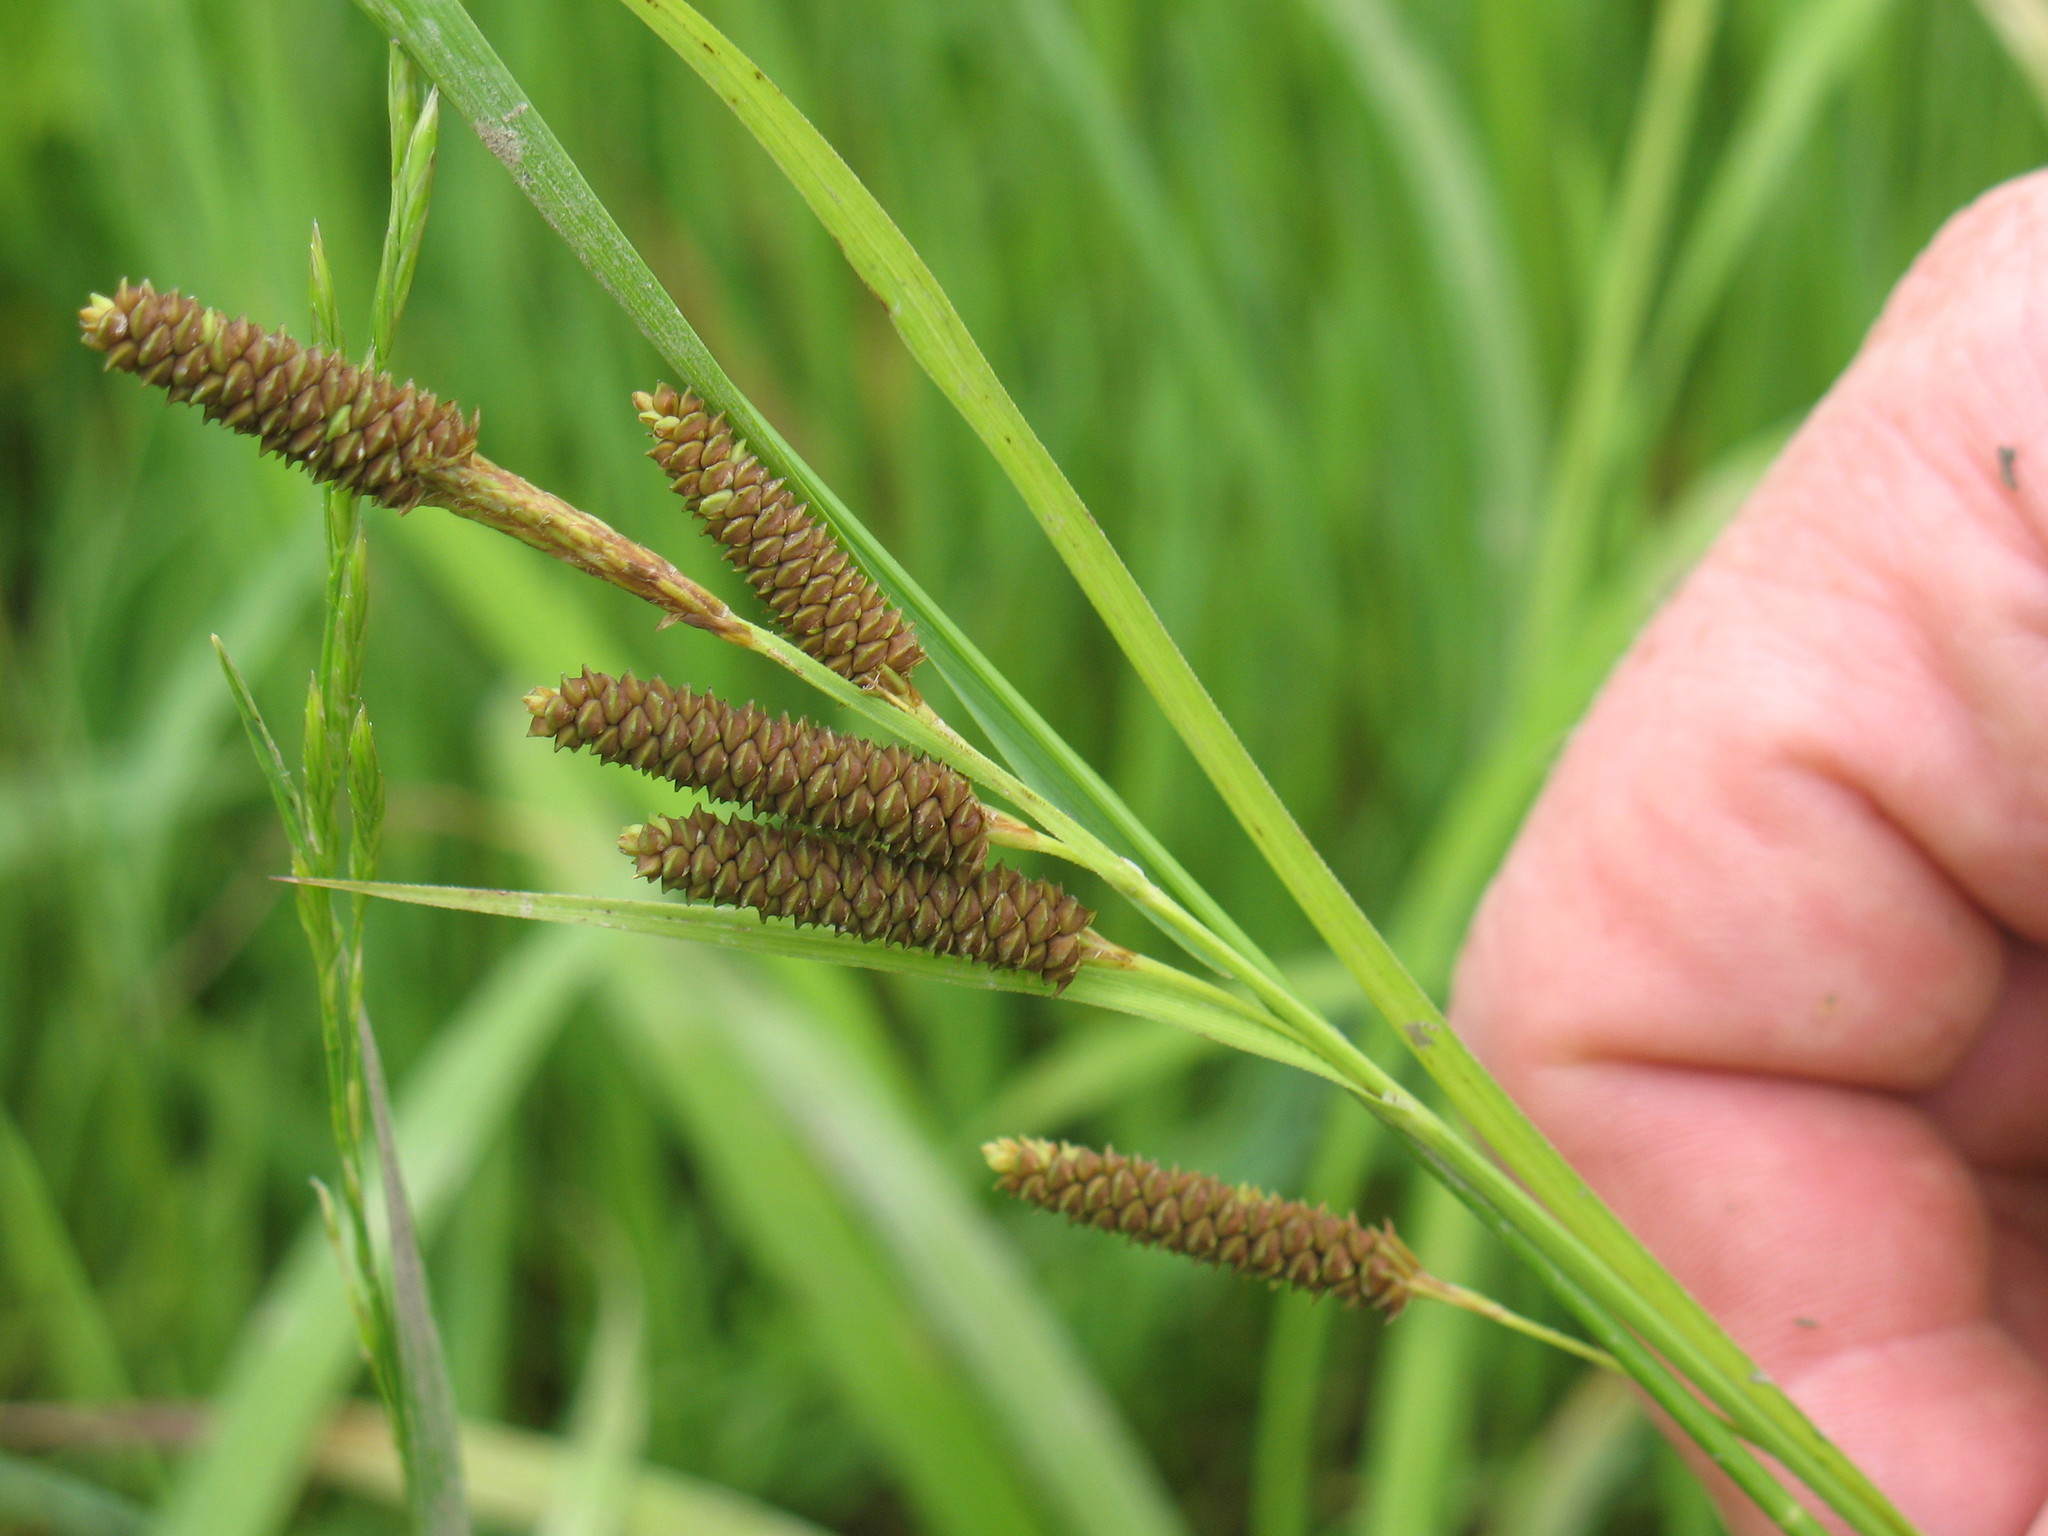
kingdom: Plantae
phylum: Tracheophyta
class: Liliopsida
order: Poales
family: Cyperaceae
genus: Carex
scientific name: Carex shortiana
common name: Short's sedge
